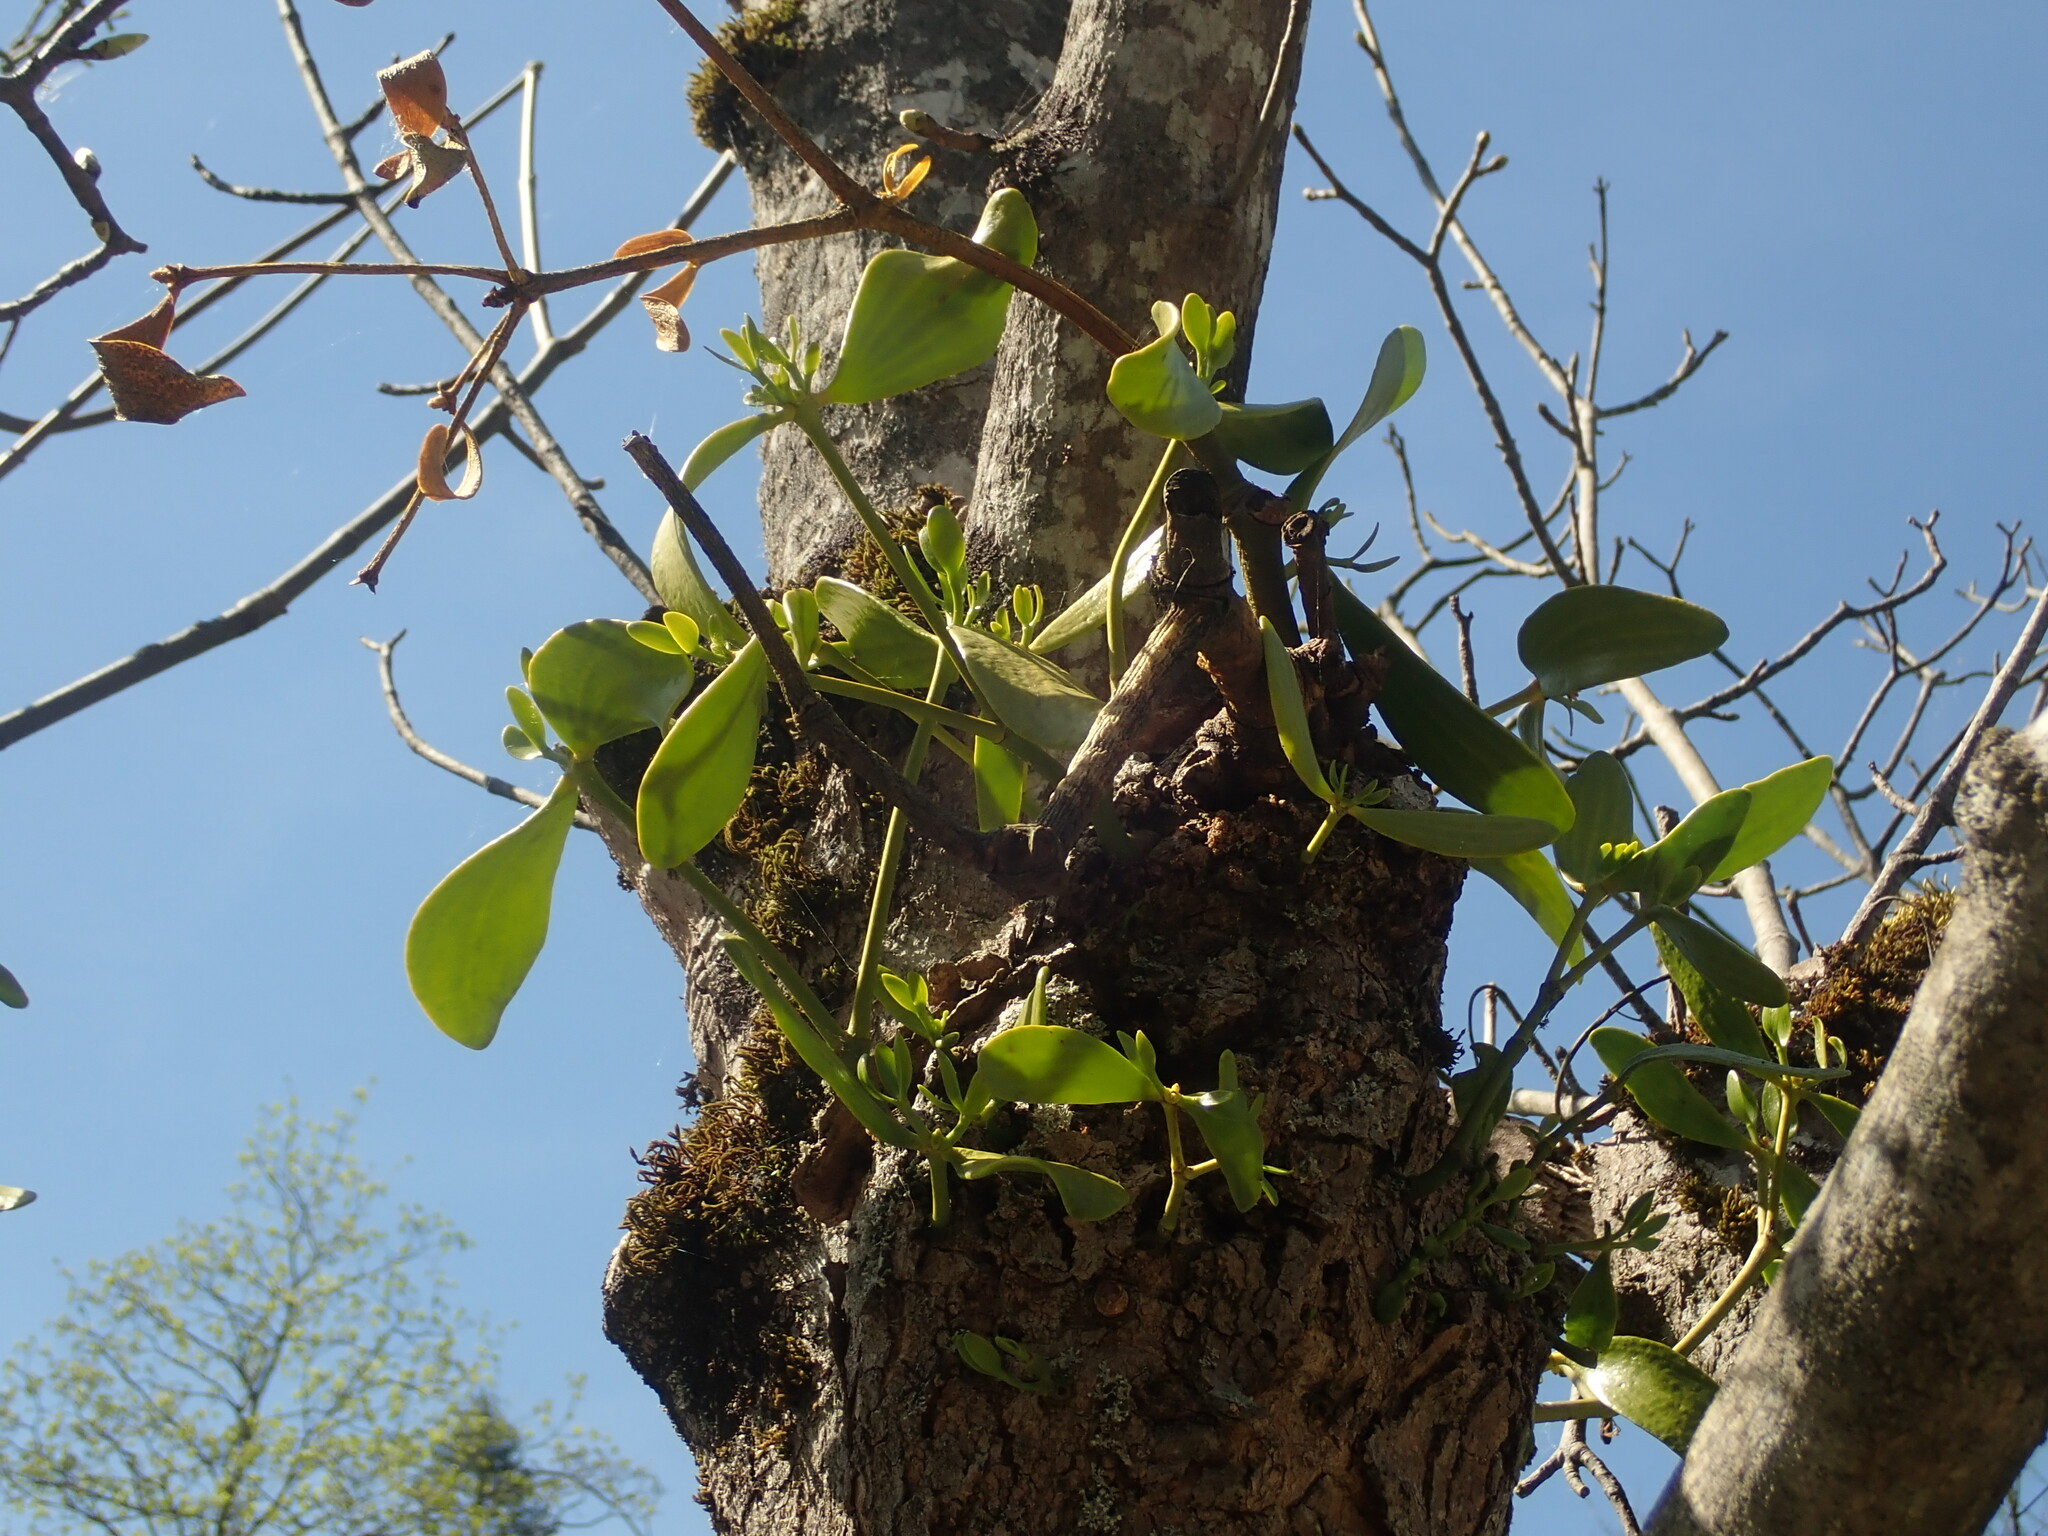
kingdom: Plantae
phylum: Tracheophyta
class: Magnoliopsida
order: Santalales
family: Viscaceae
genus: Viscum
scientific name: Viscum album
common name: Mistletoe
